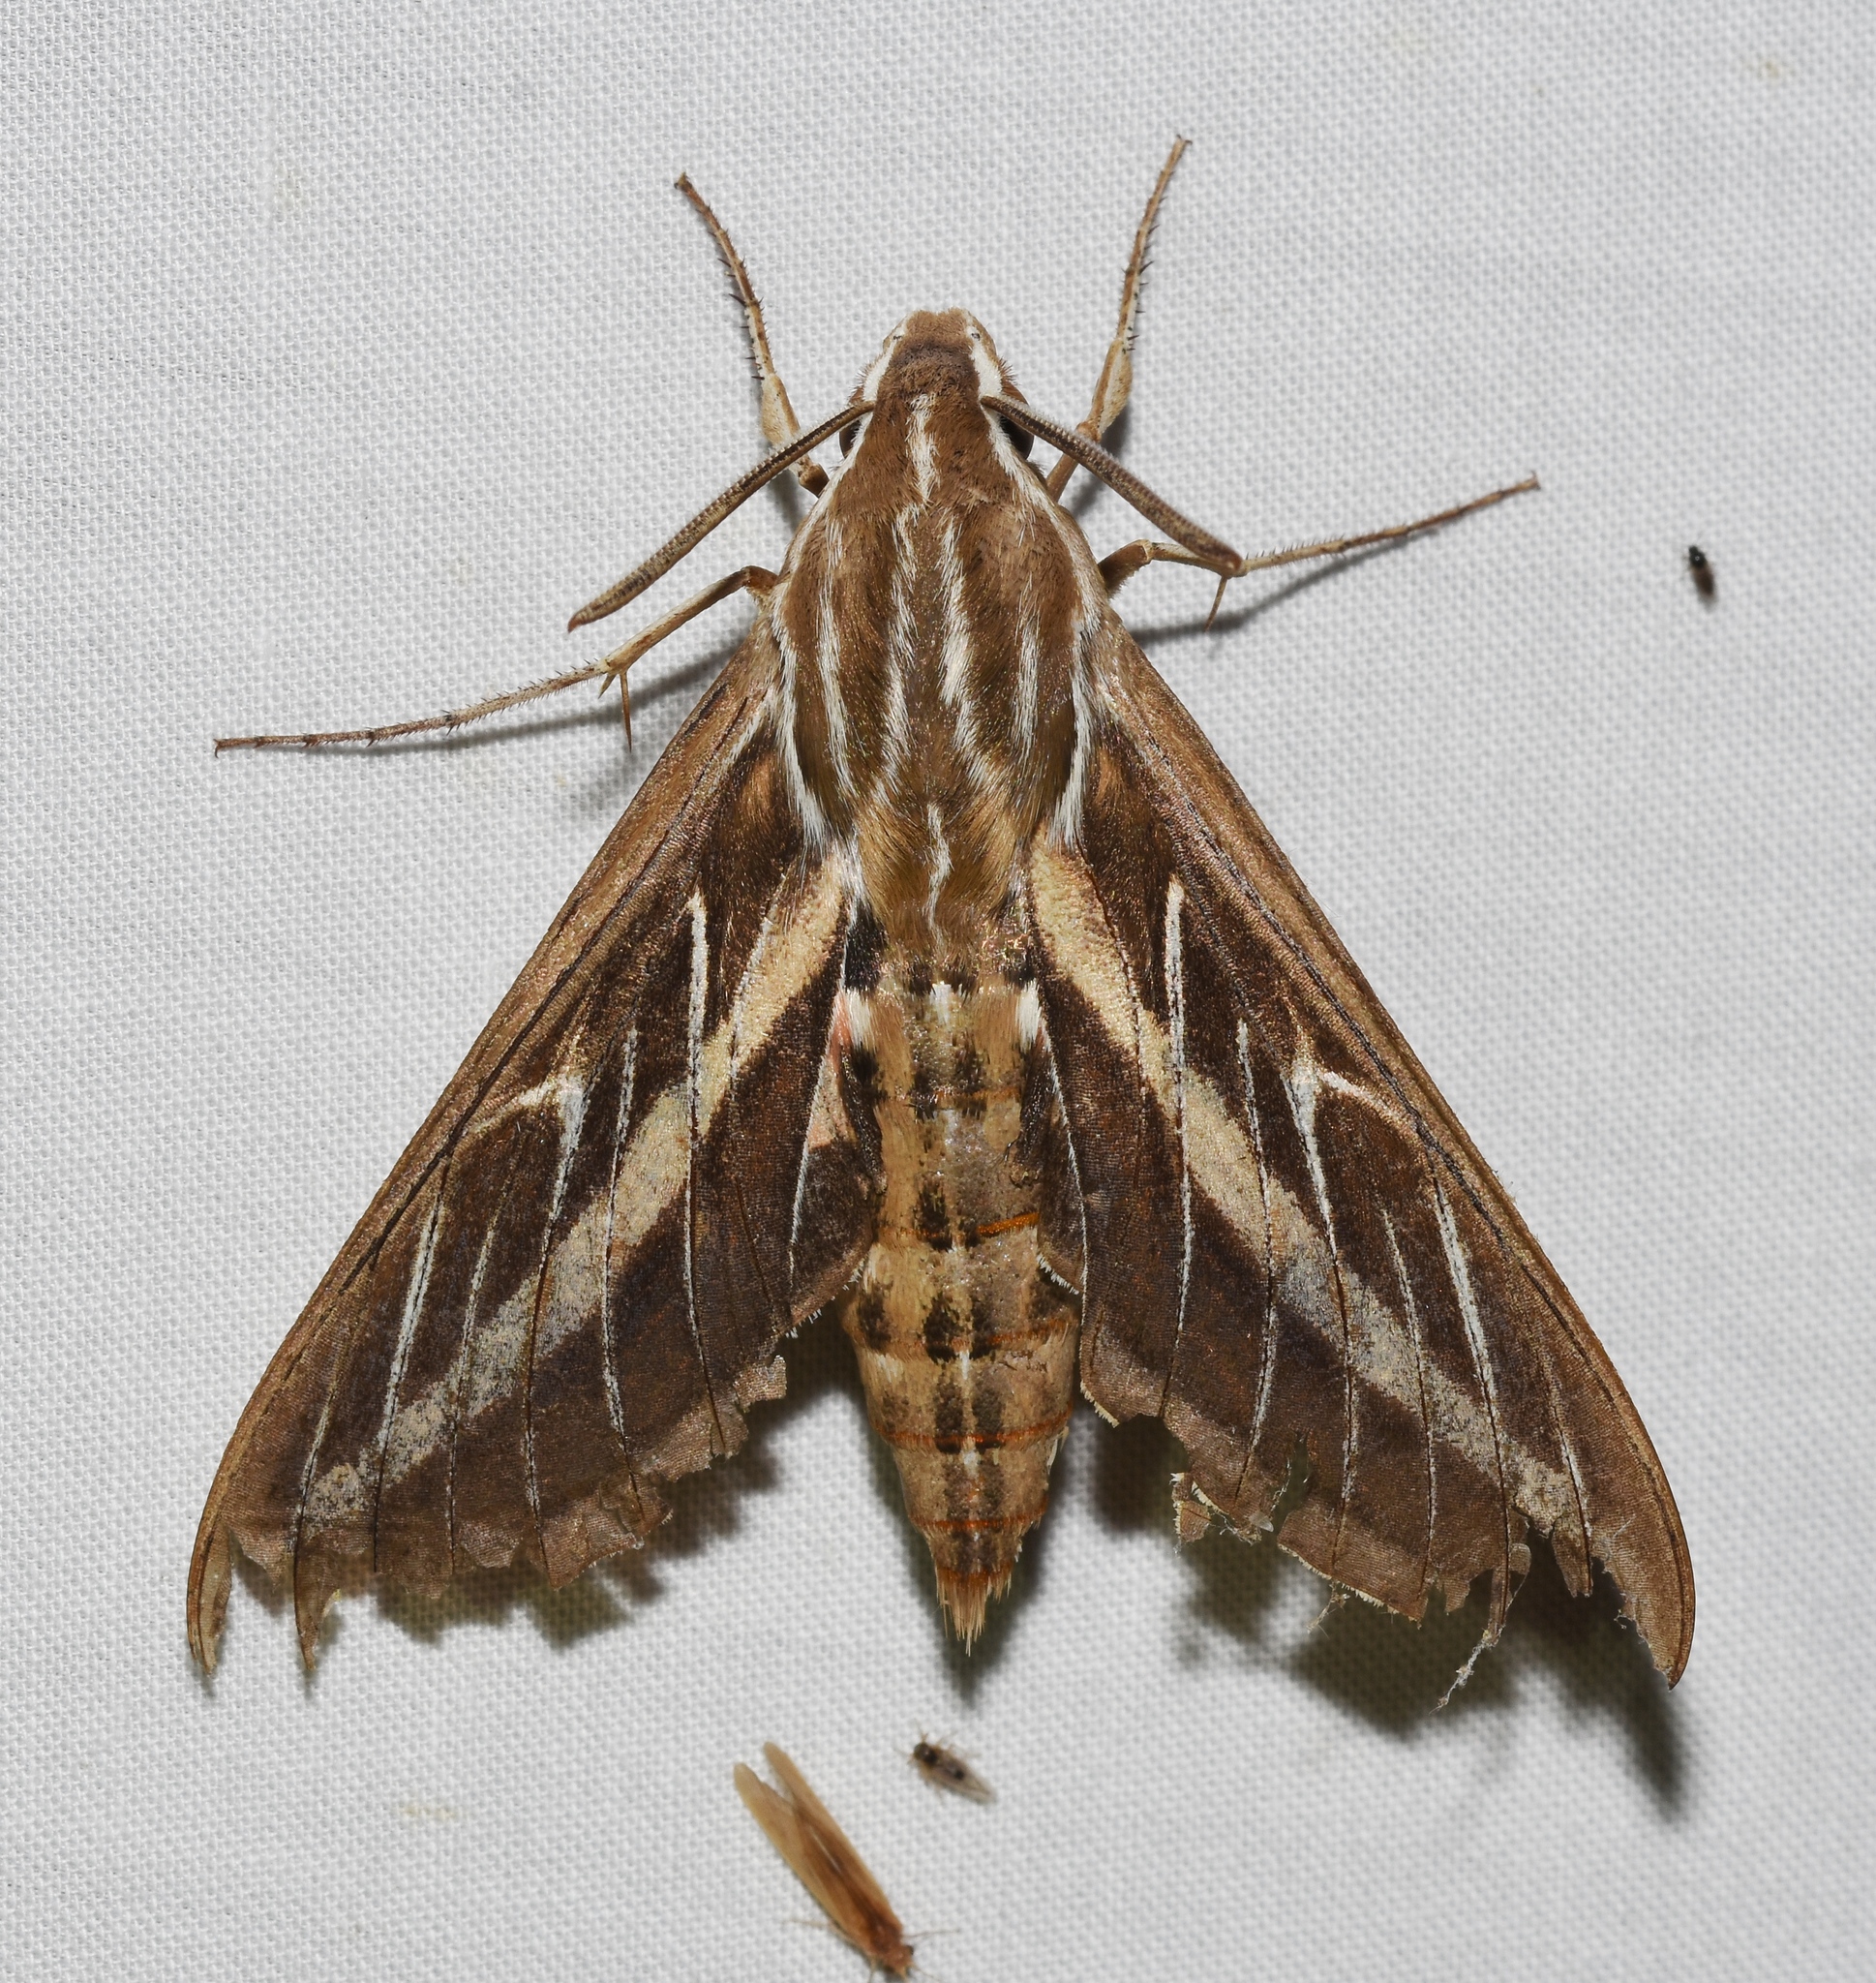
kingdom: Animalia
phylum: Arthropoda
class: Insecta
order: Lepidoptera
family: Sphingidae
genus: Hyles
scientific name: Hyles lineata
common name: White-lined sphinx
